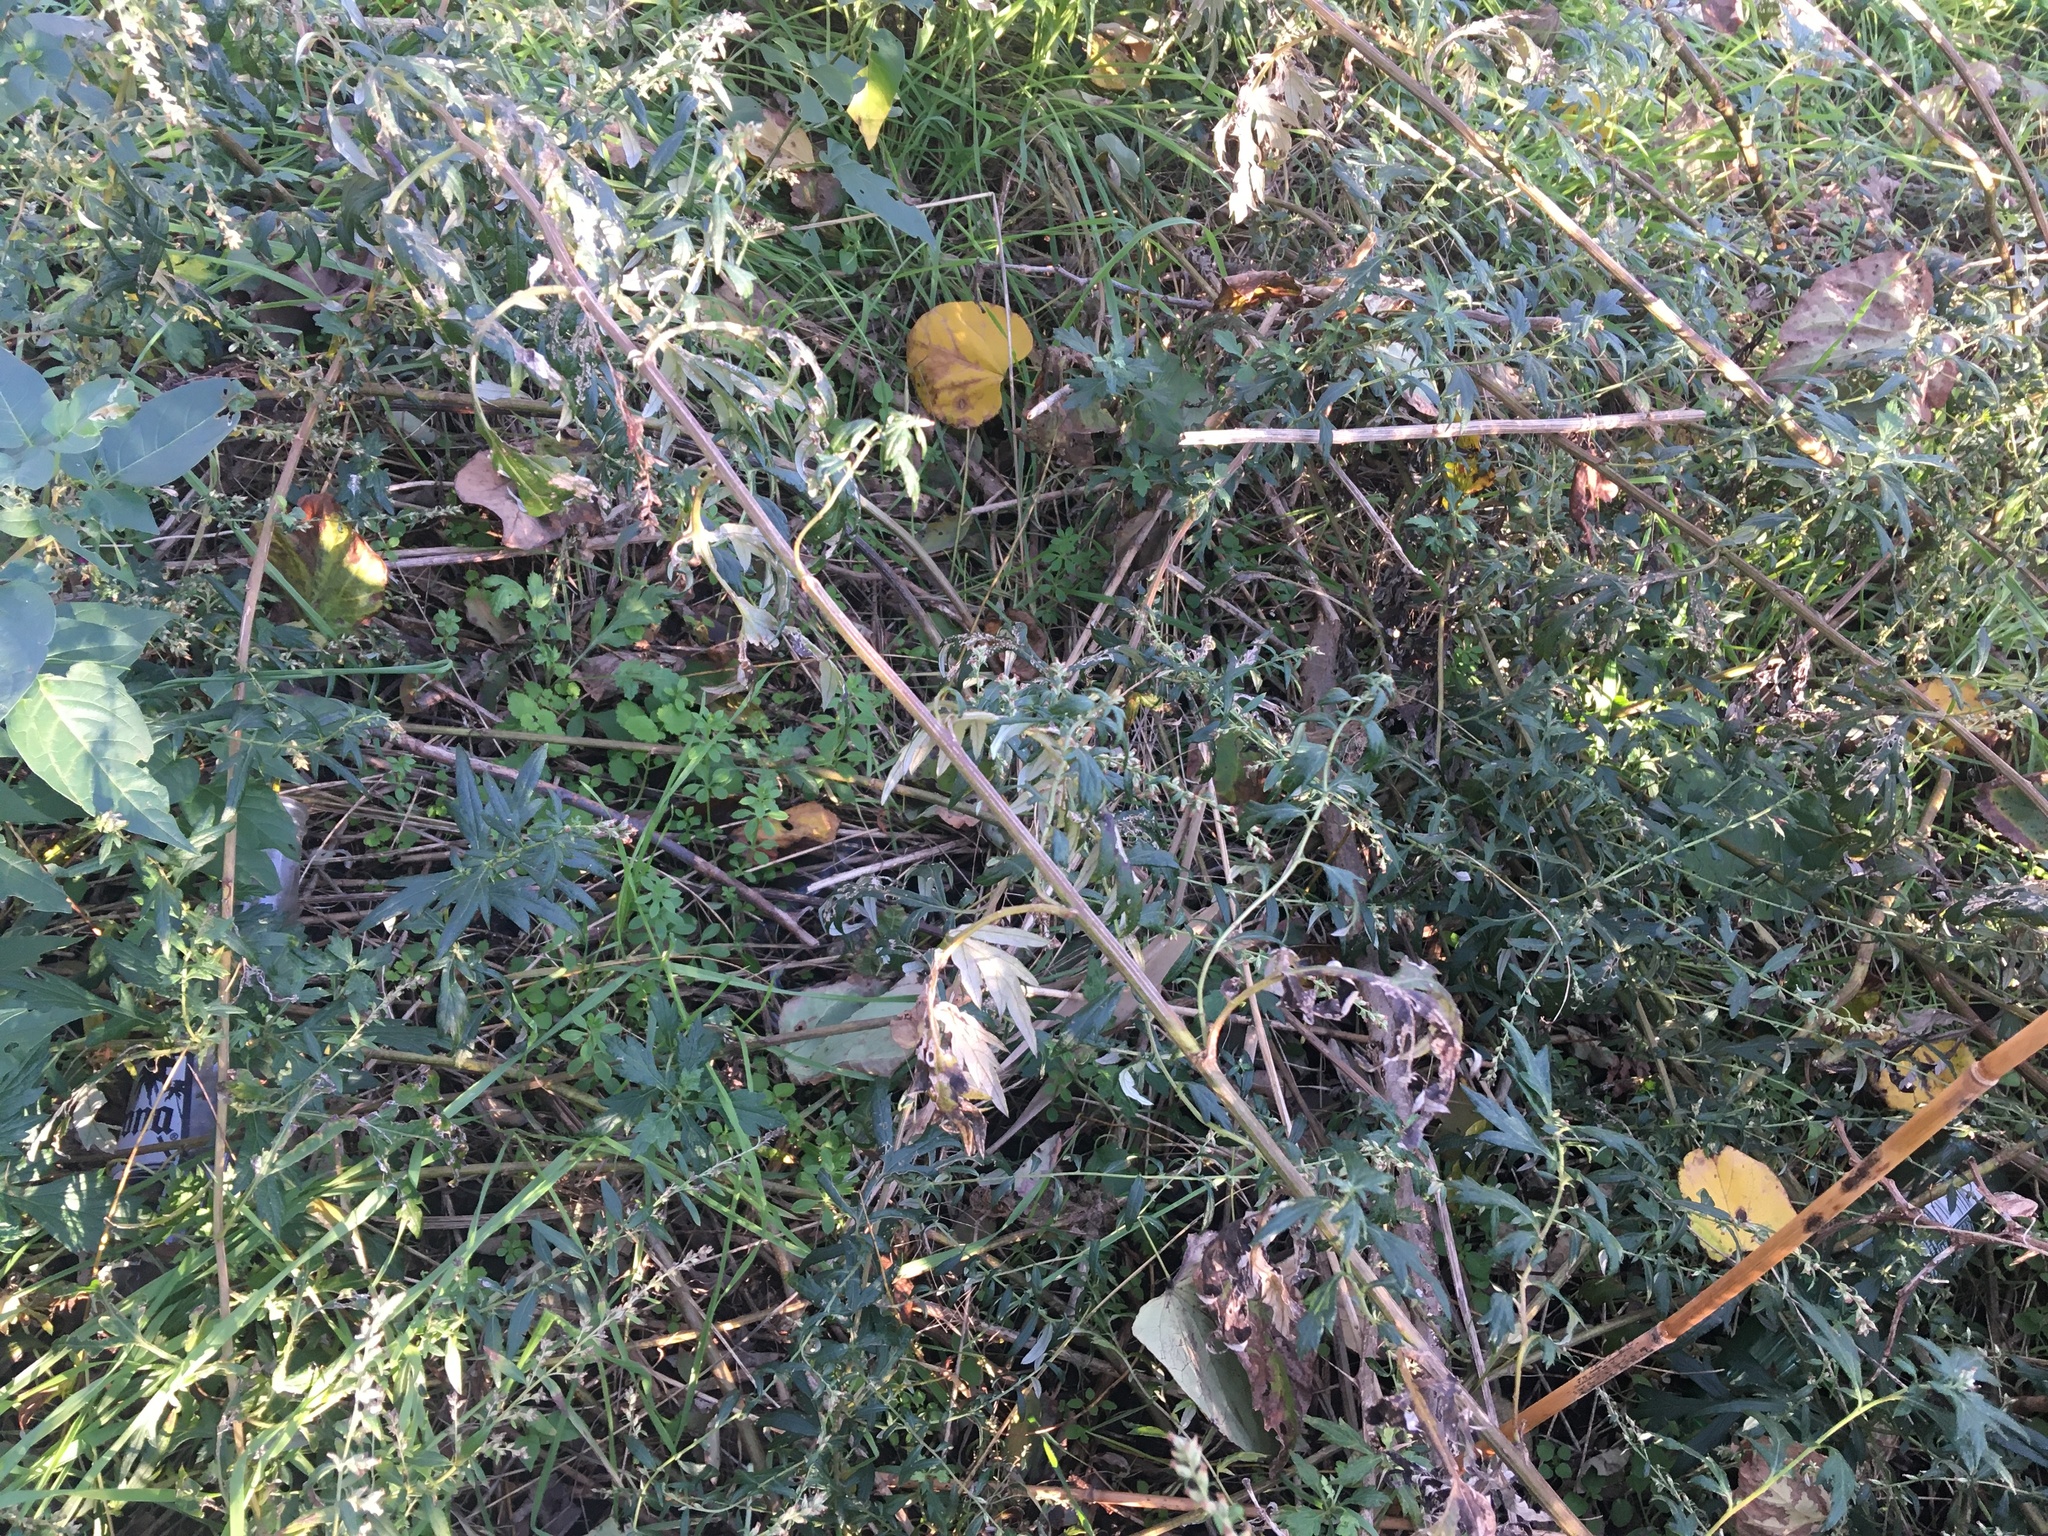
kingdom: Plantae
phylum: Tracheophyta
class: Magnoliopsida
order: Asterales
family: Asteraceae
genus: Artemisia
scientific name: Artemisia vulgaris
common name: Mugwort
